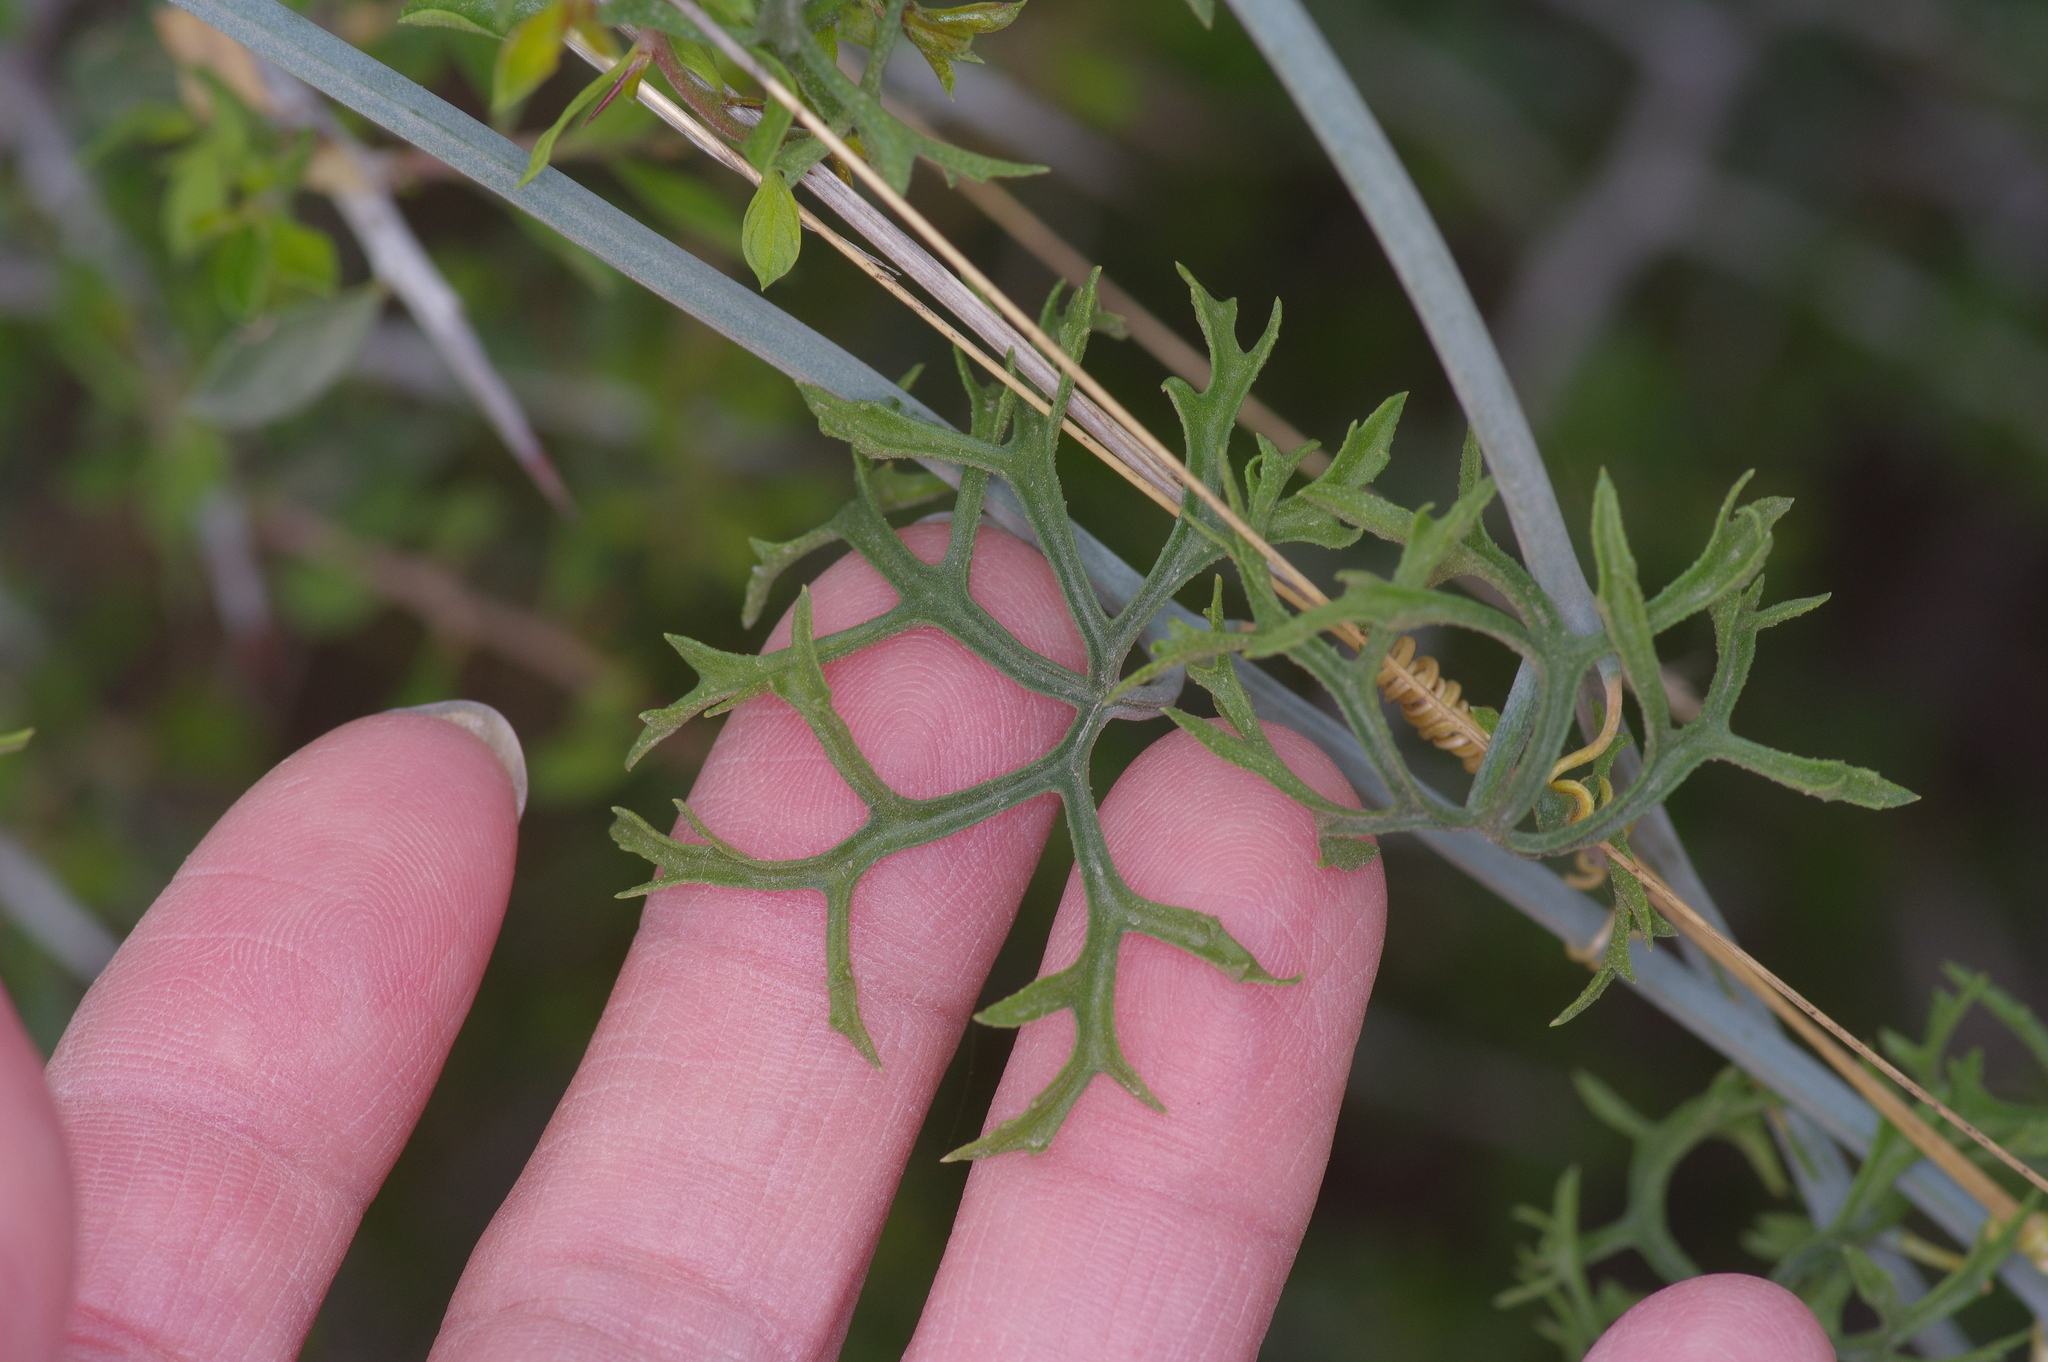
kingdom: Plantae
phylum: Tracheophyta
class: Magnoliopsida
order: Cucurbitales
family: Cucurbitaceae
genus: Ibervillea
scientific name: Ibervillea tenuisecta
